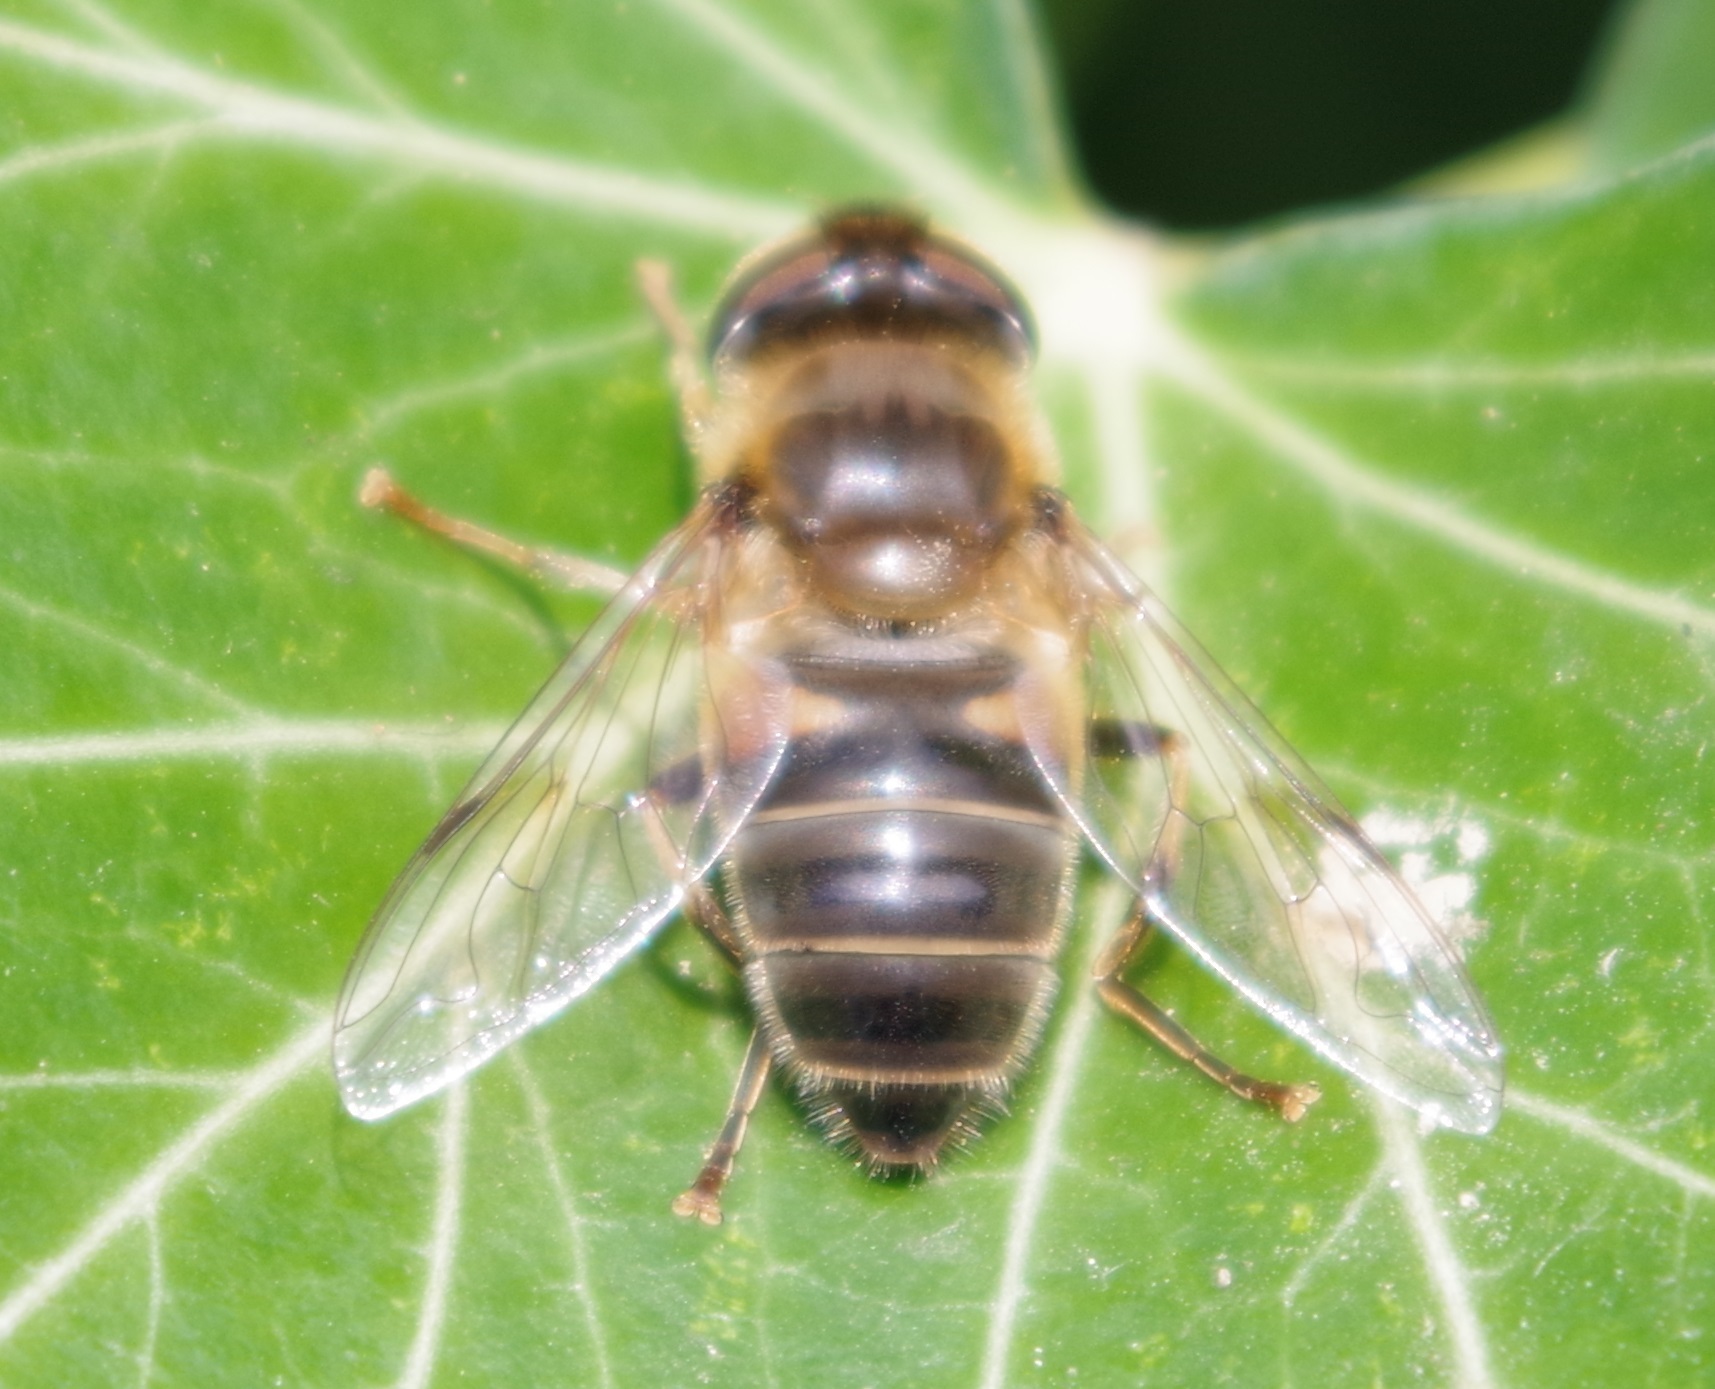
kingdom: Animalia
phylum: Arthropoda
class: Insecta
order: Diptera
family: Syrphidae
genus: Eristalis
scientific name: Eristalis pertinax
